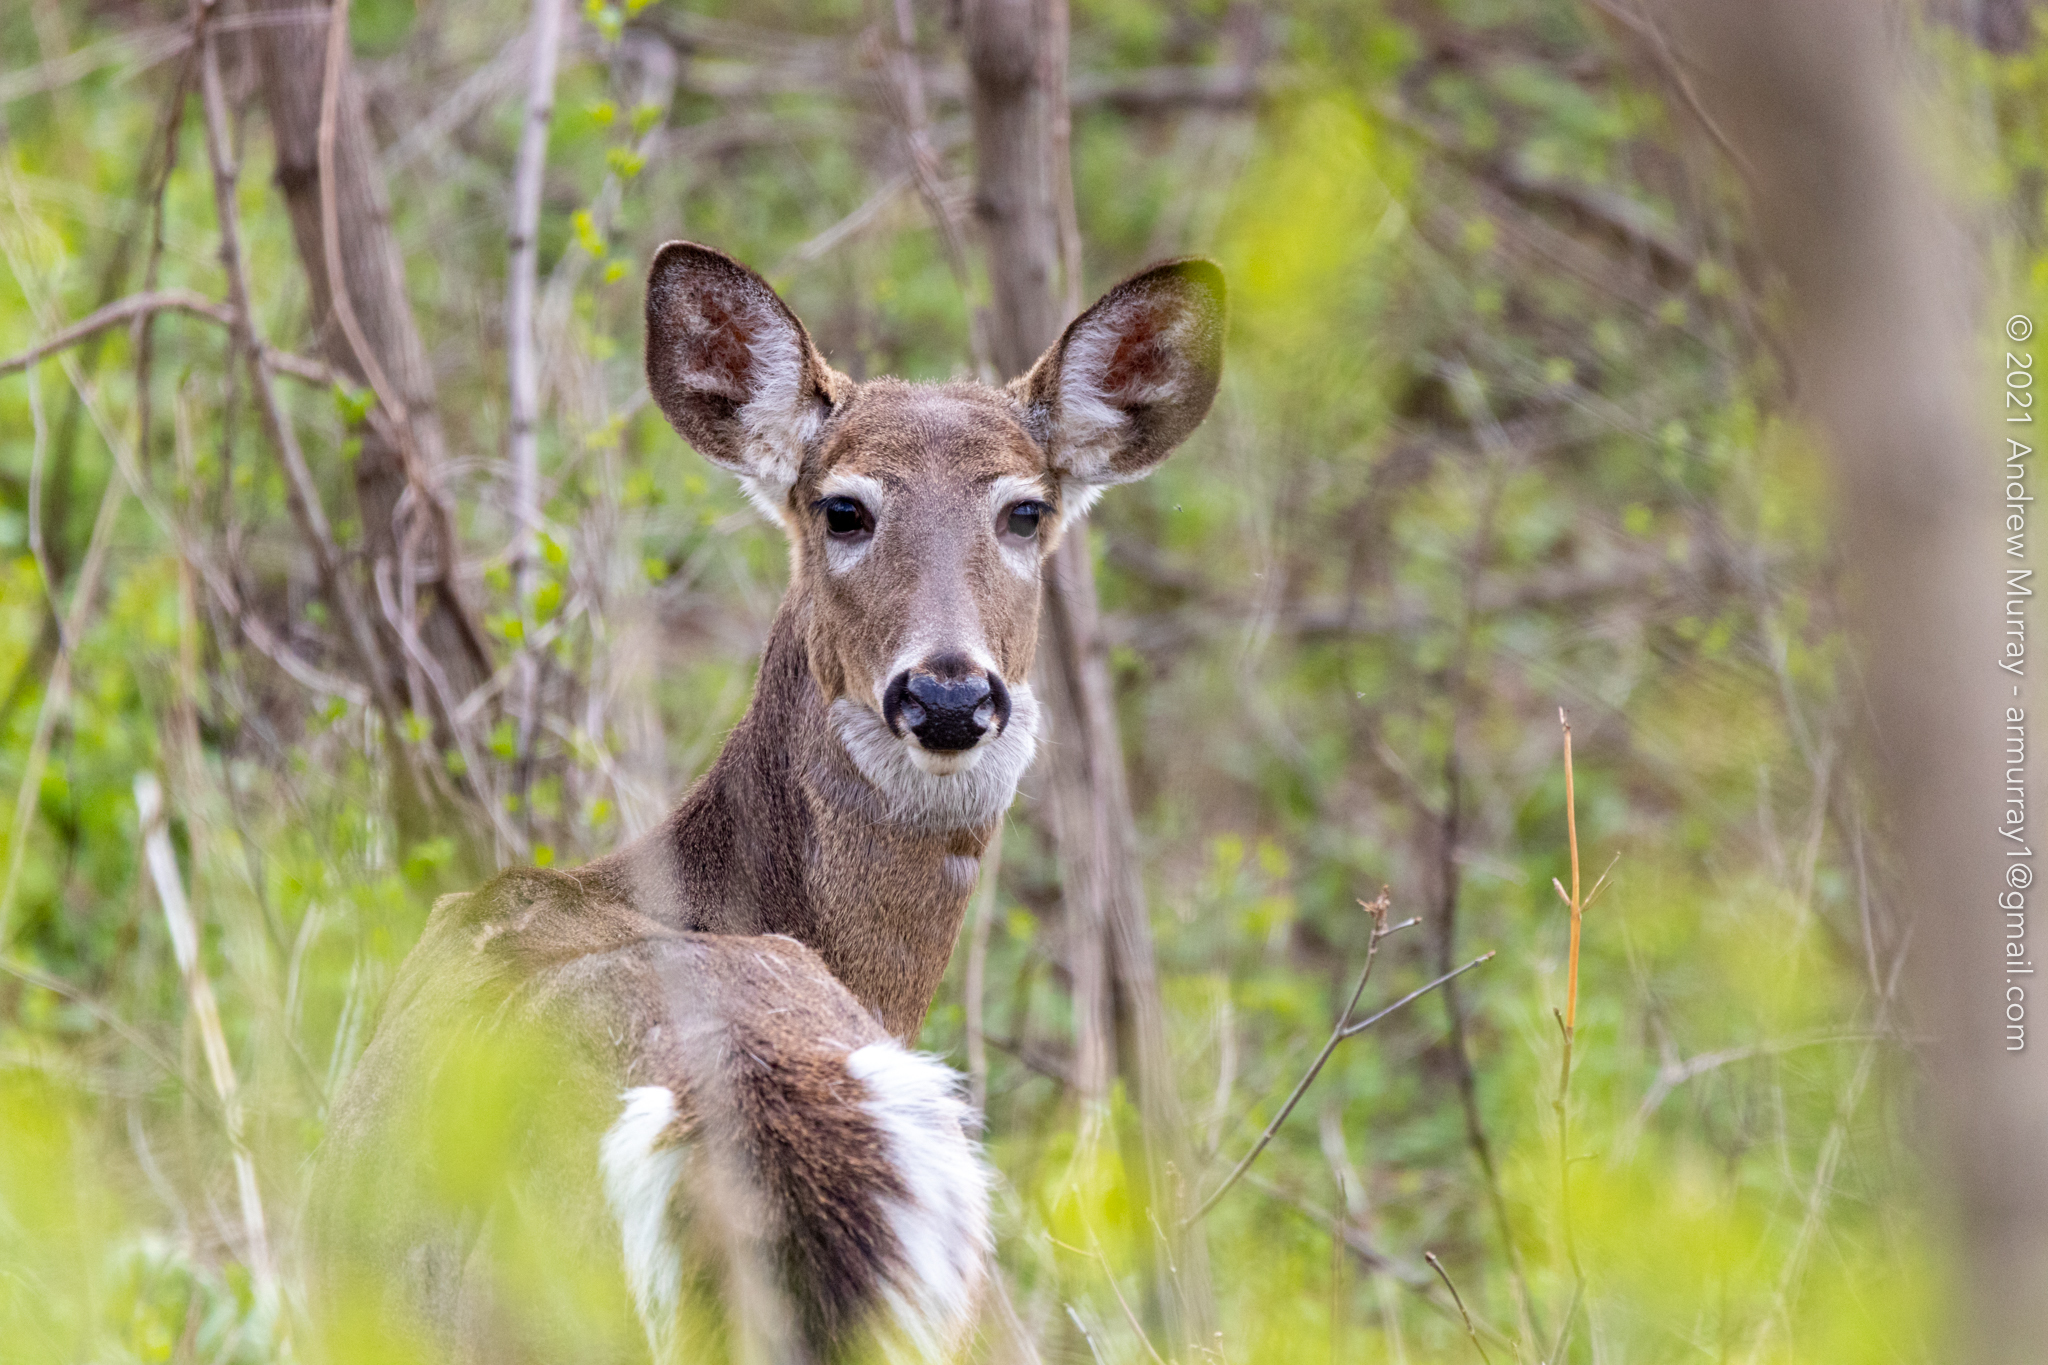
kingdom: Animalia
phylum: Chordata
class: Mammalia
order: Artiodactyla
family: Cervidae
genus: Odocoileus
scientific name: Odocoileus virginianus
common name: White-tailed deer
